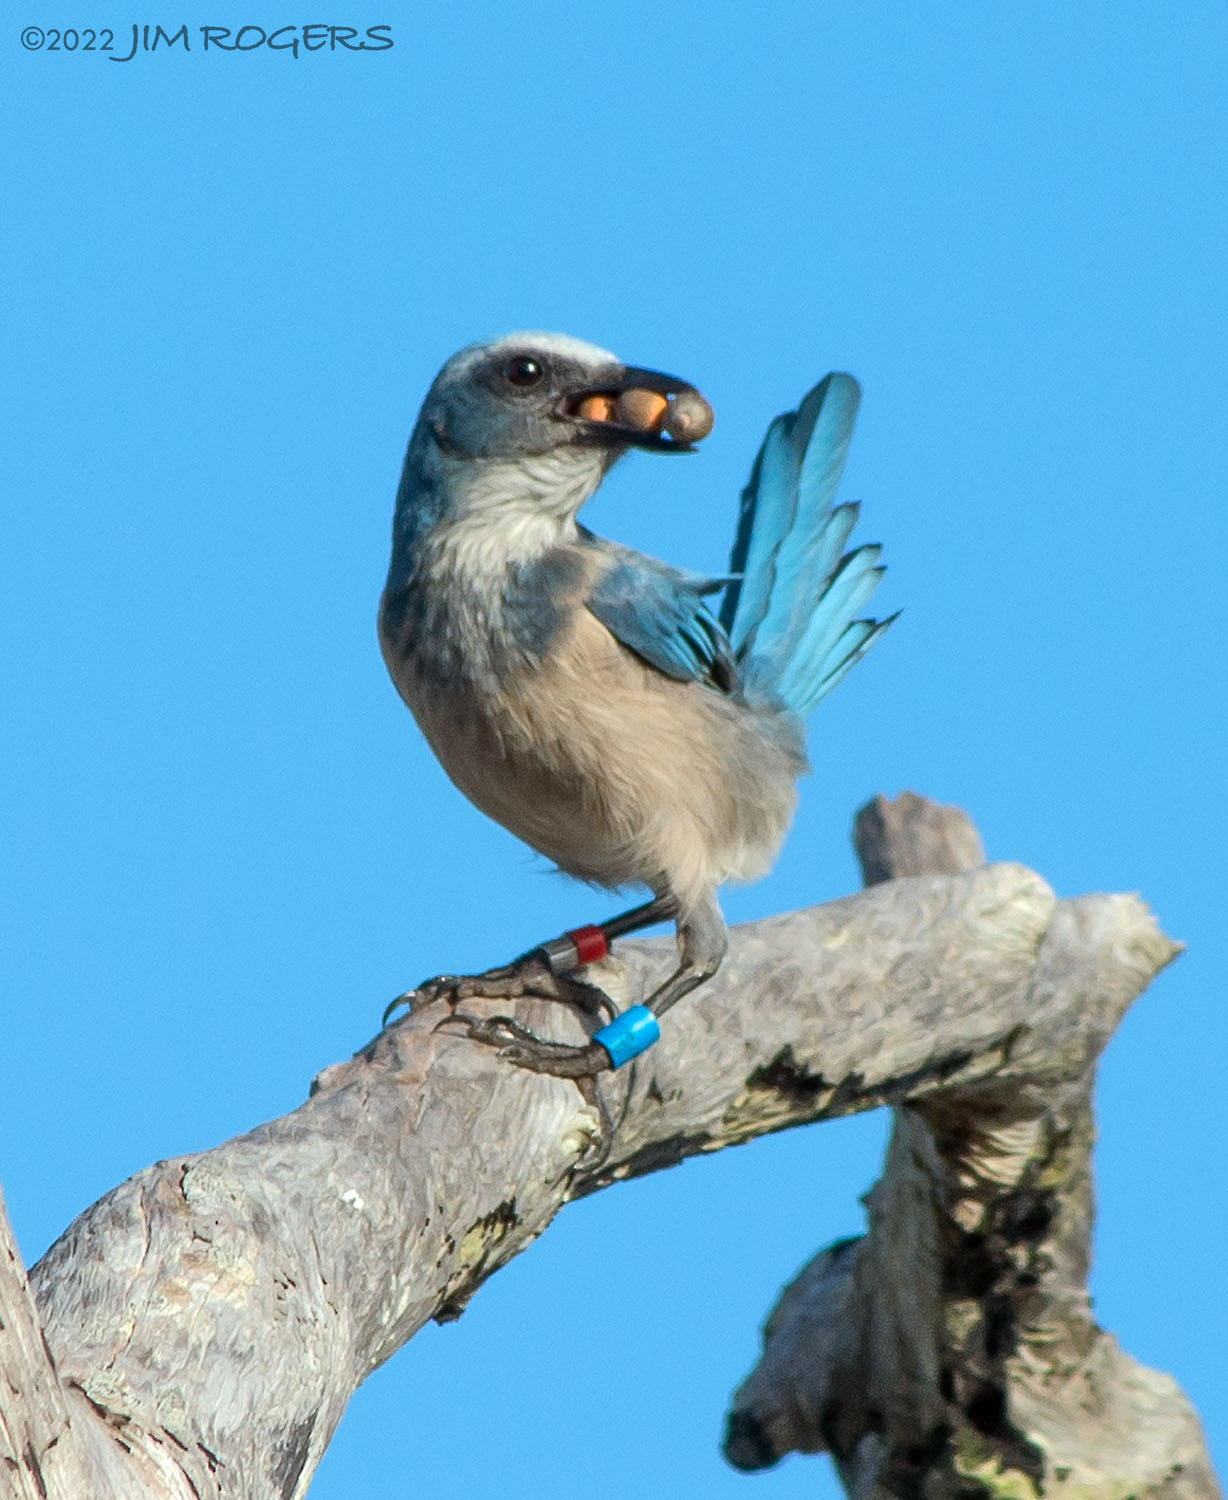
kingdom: Animalia
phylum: Chordata
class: Aves
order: Passeriformes
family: Corvidae
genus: Aphelocoma
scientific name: Aphelocoma coerulescens
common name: Florida scrub jay
